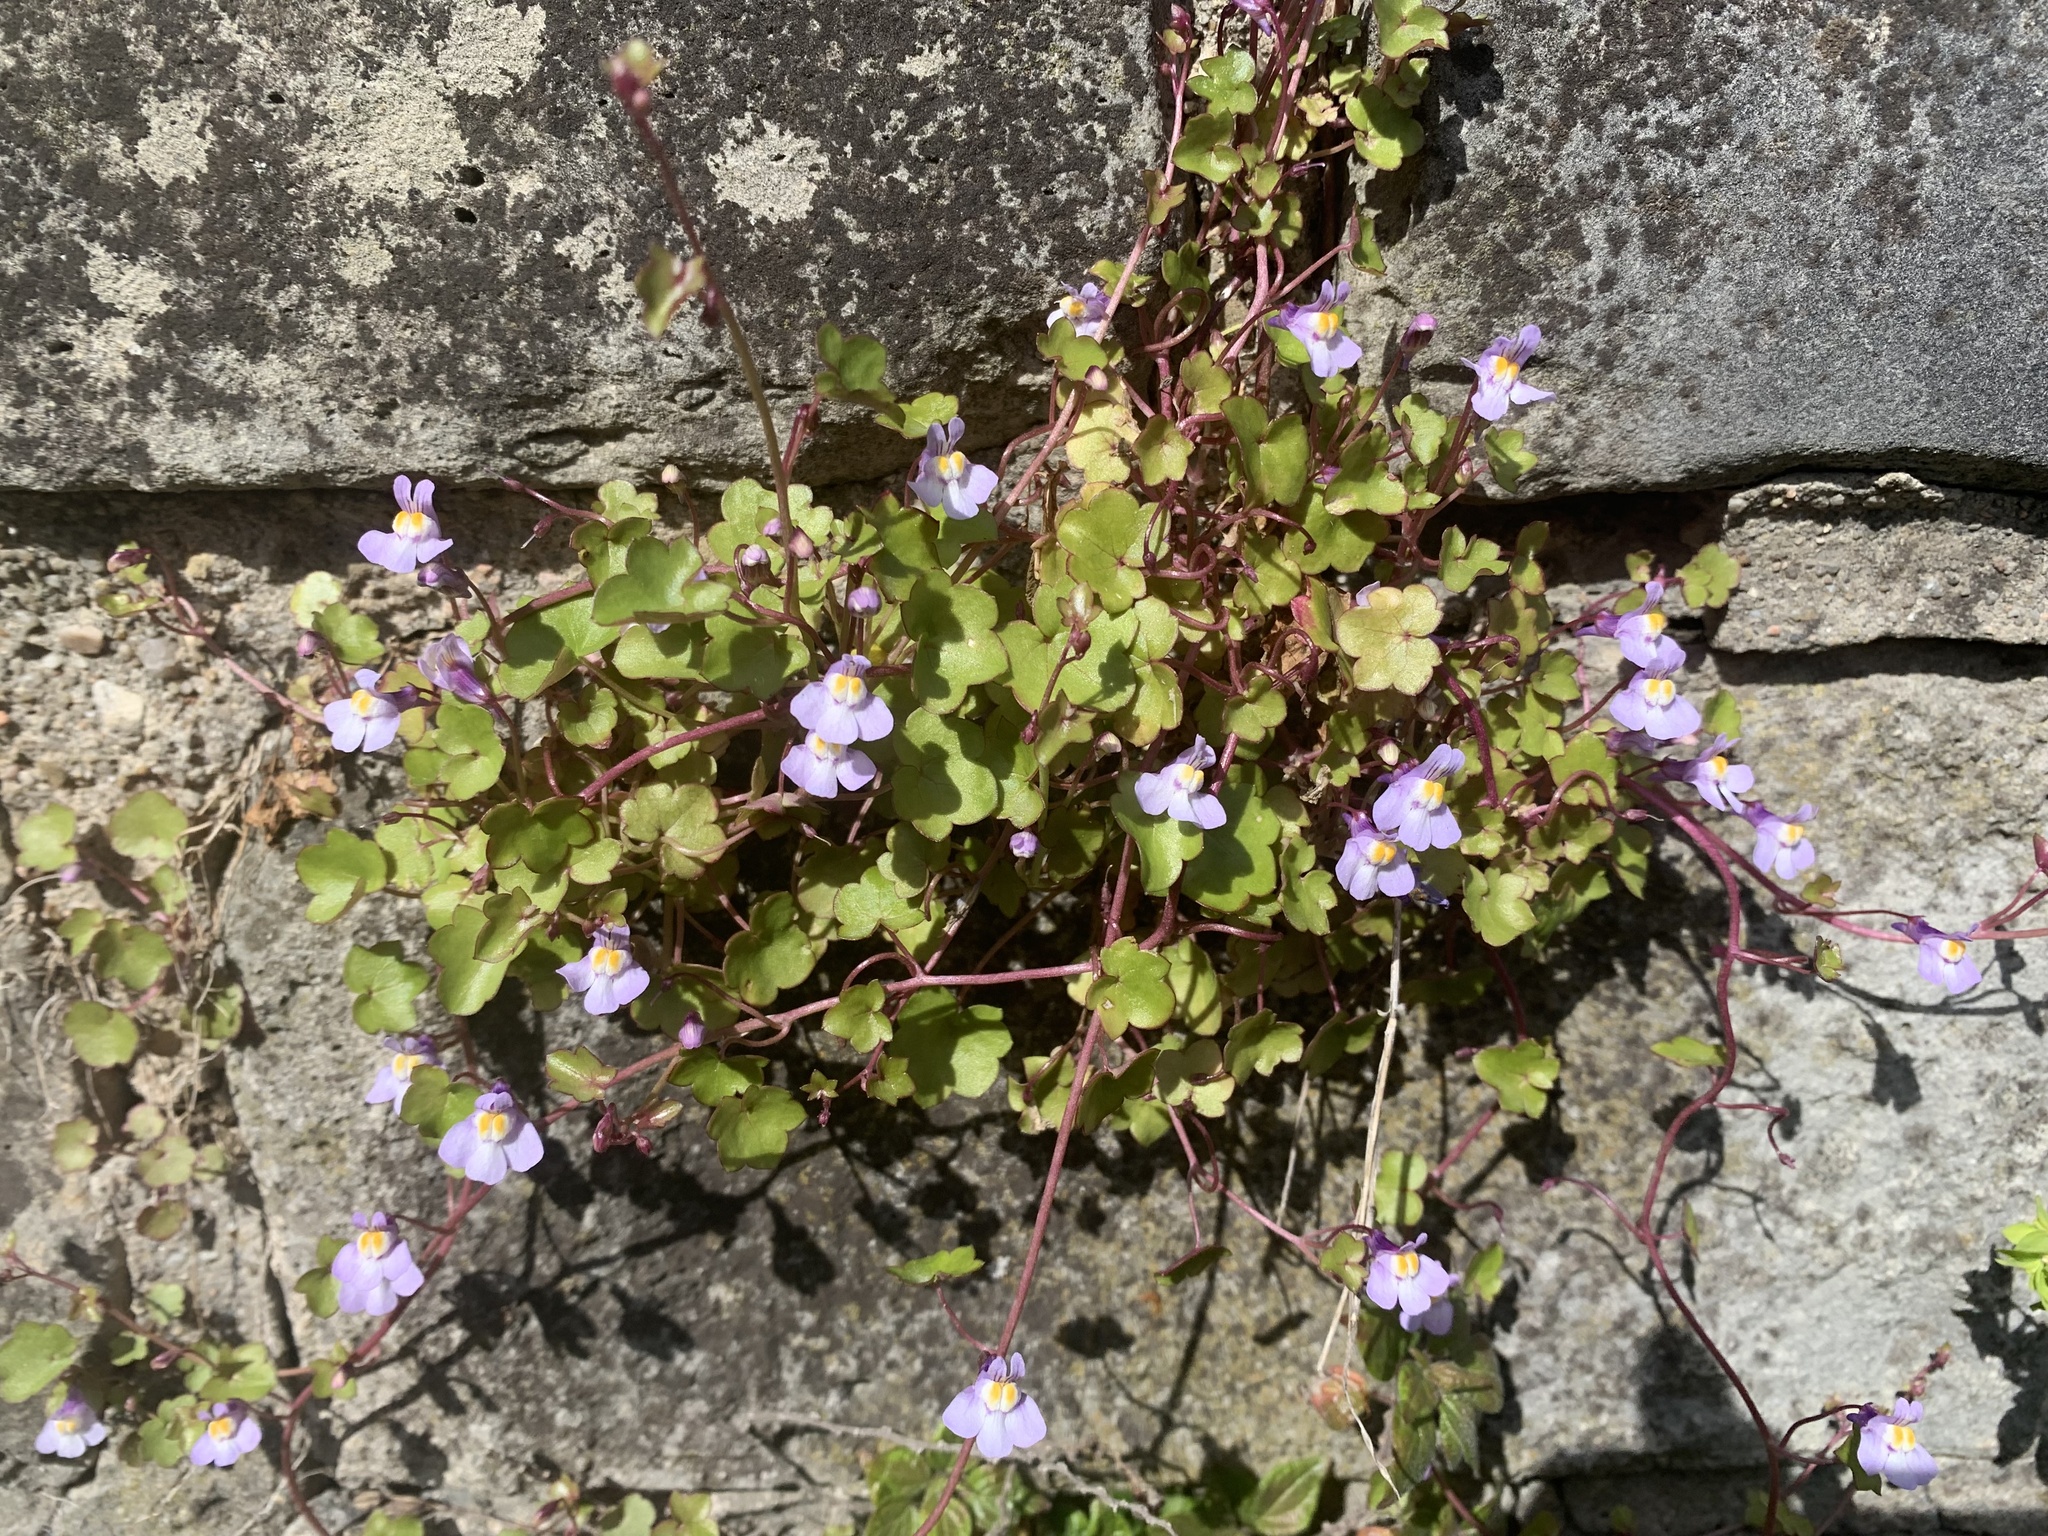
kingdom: Plantae
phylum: Tracheophyta
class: Magnoliopsida
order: Lamiales
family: Plantaginaceae
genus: Cymbalaria
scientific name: Cymbalaria muralis
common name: Ivy-leaved toadflax
